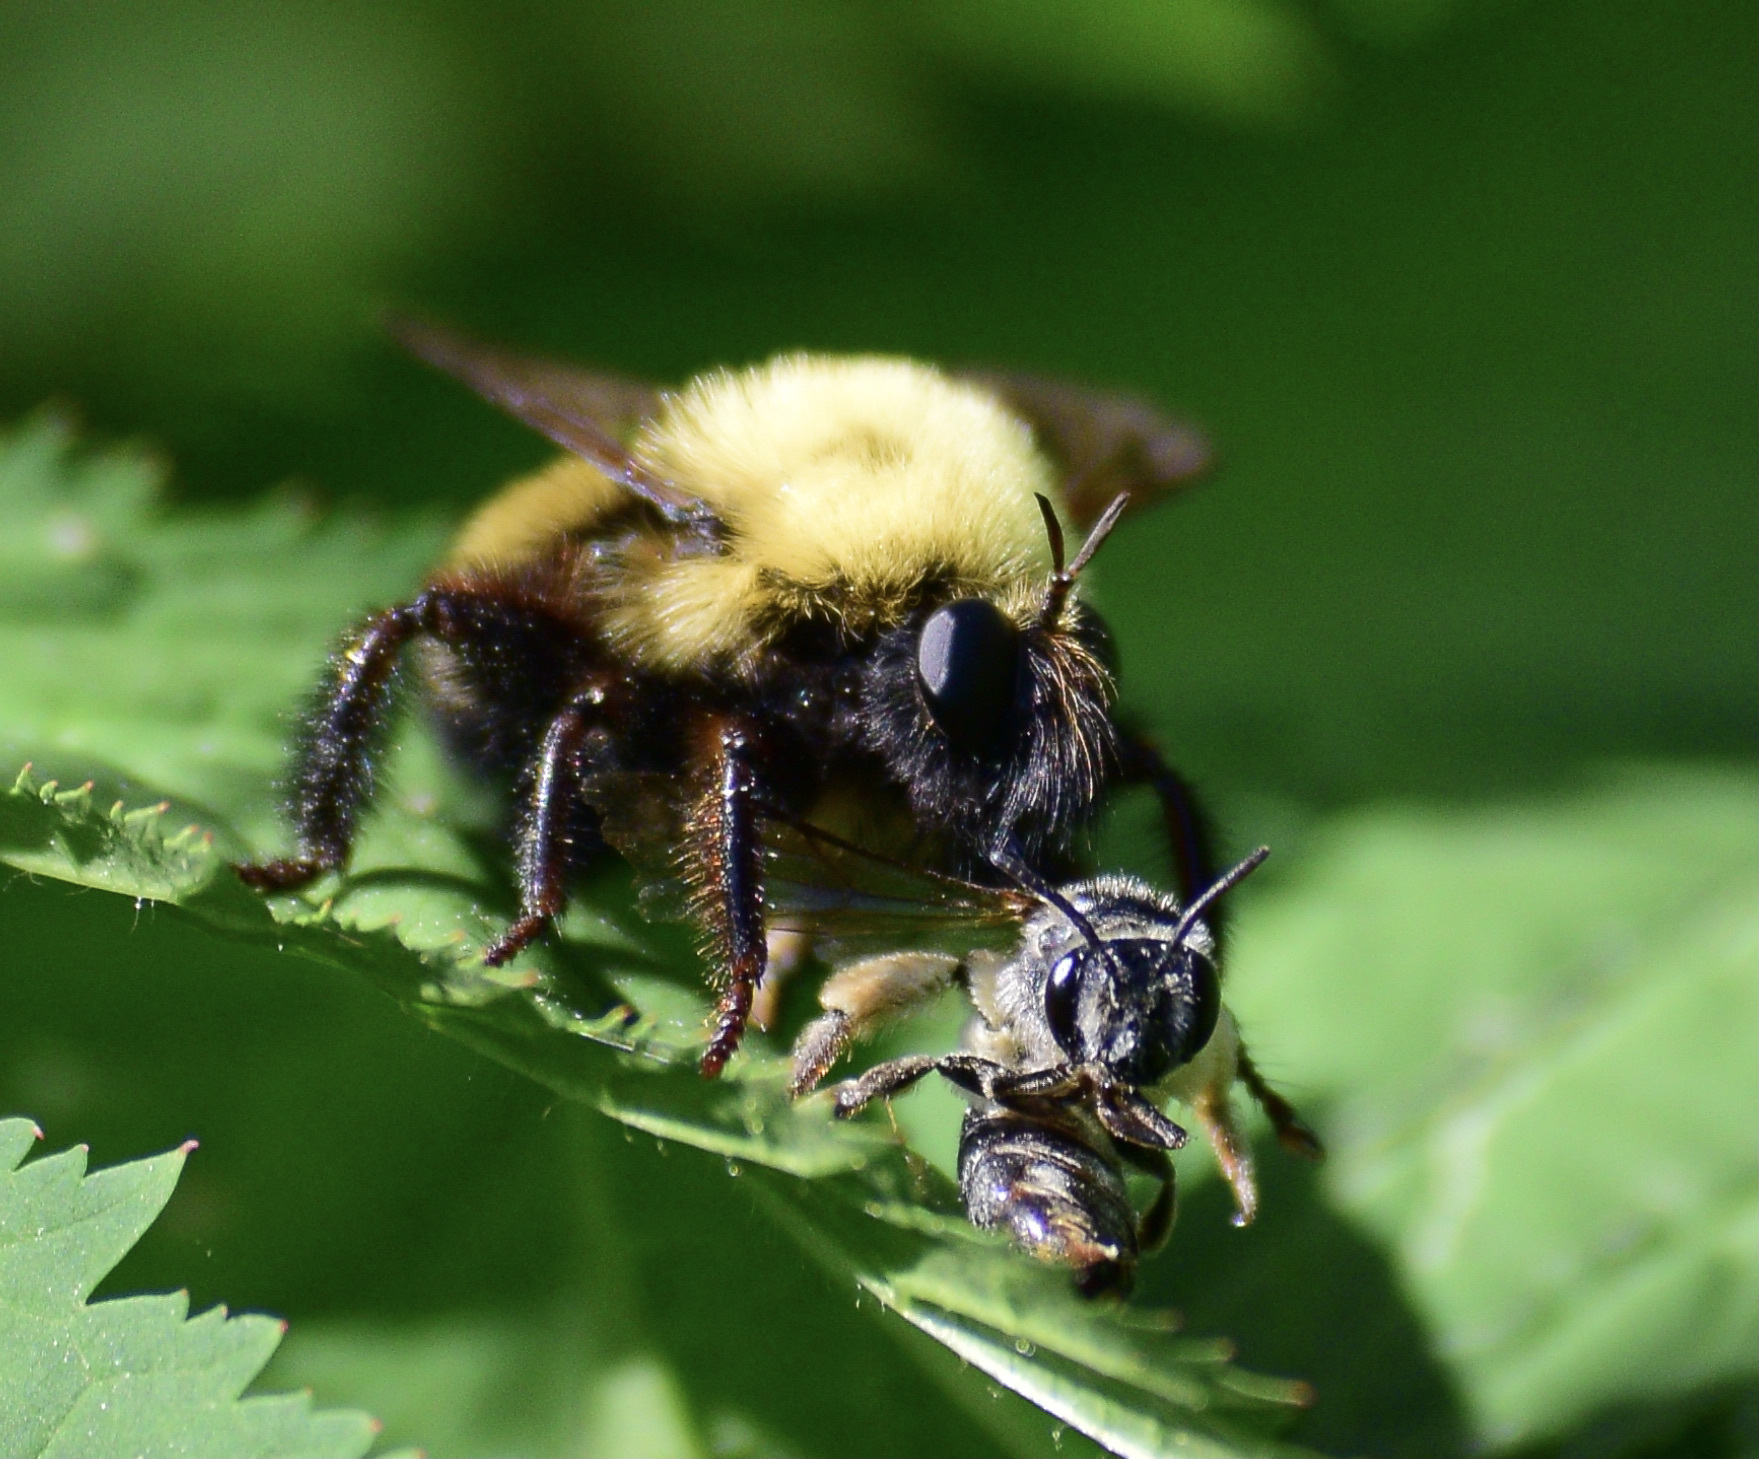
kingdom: Animalia
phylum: Arthropoda
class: Insecta
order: Diptera
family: Asilidae
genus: Laphria
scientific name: Laphria thoracica
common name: Bumble bee mimic robber fly
